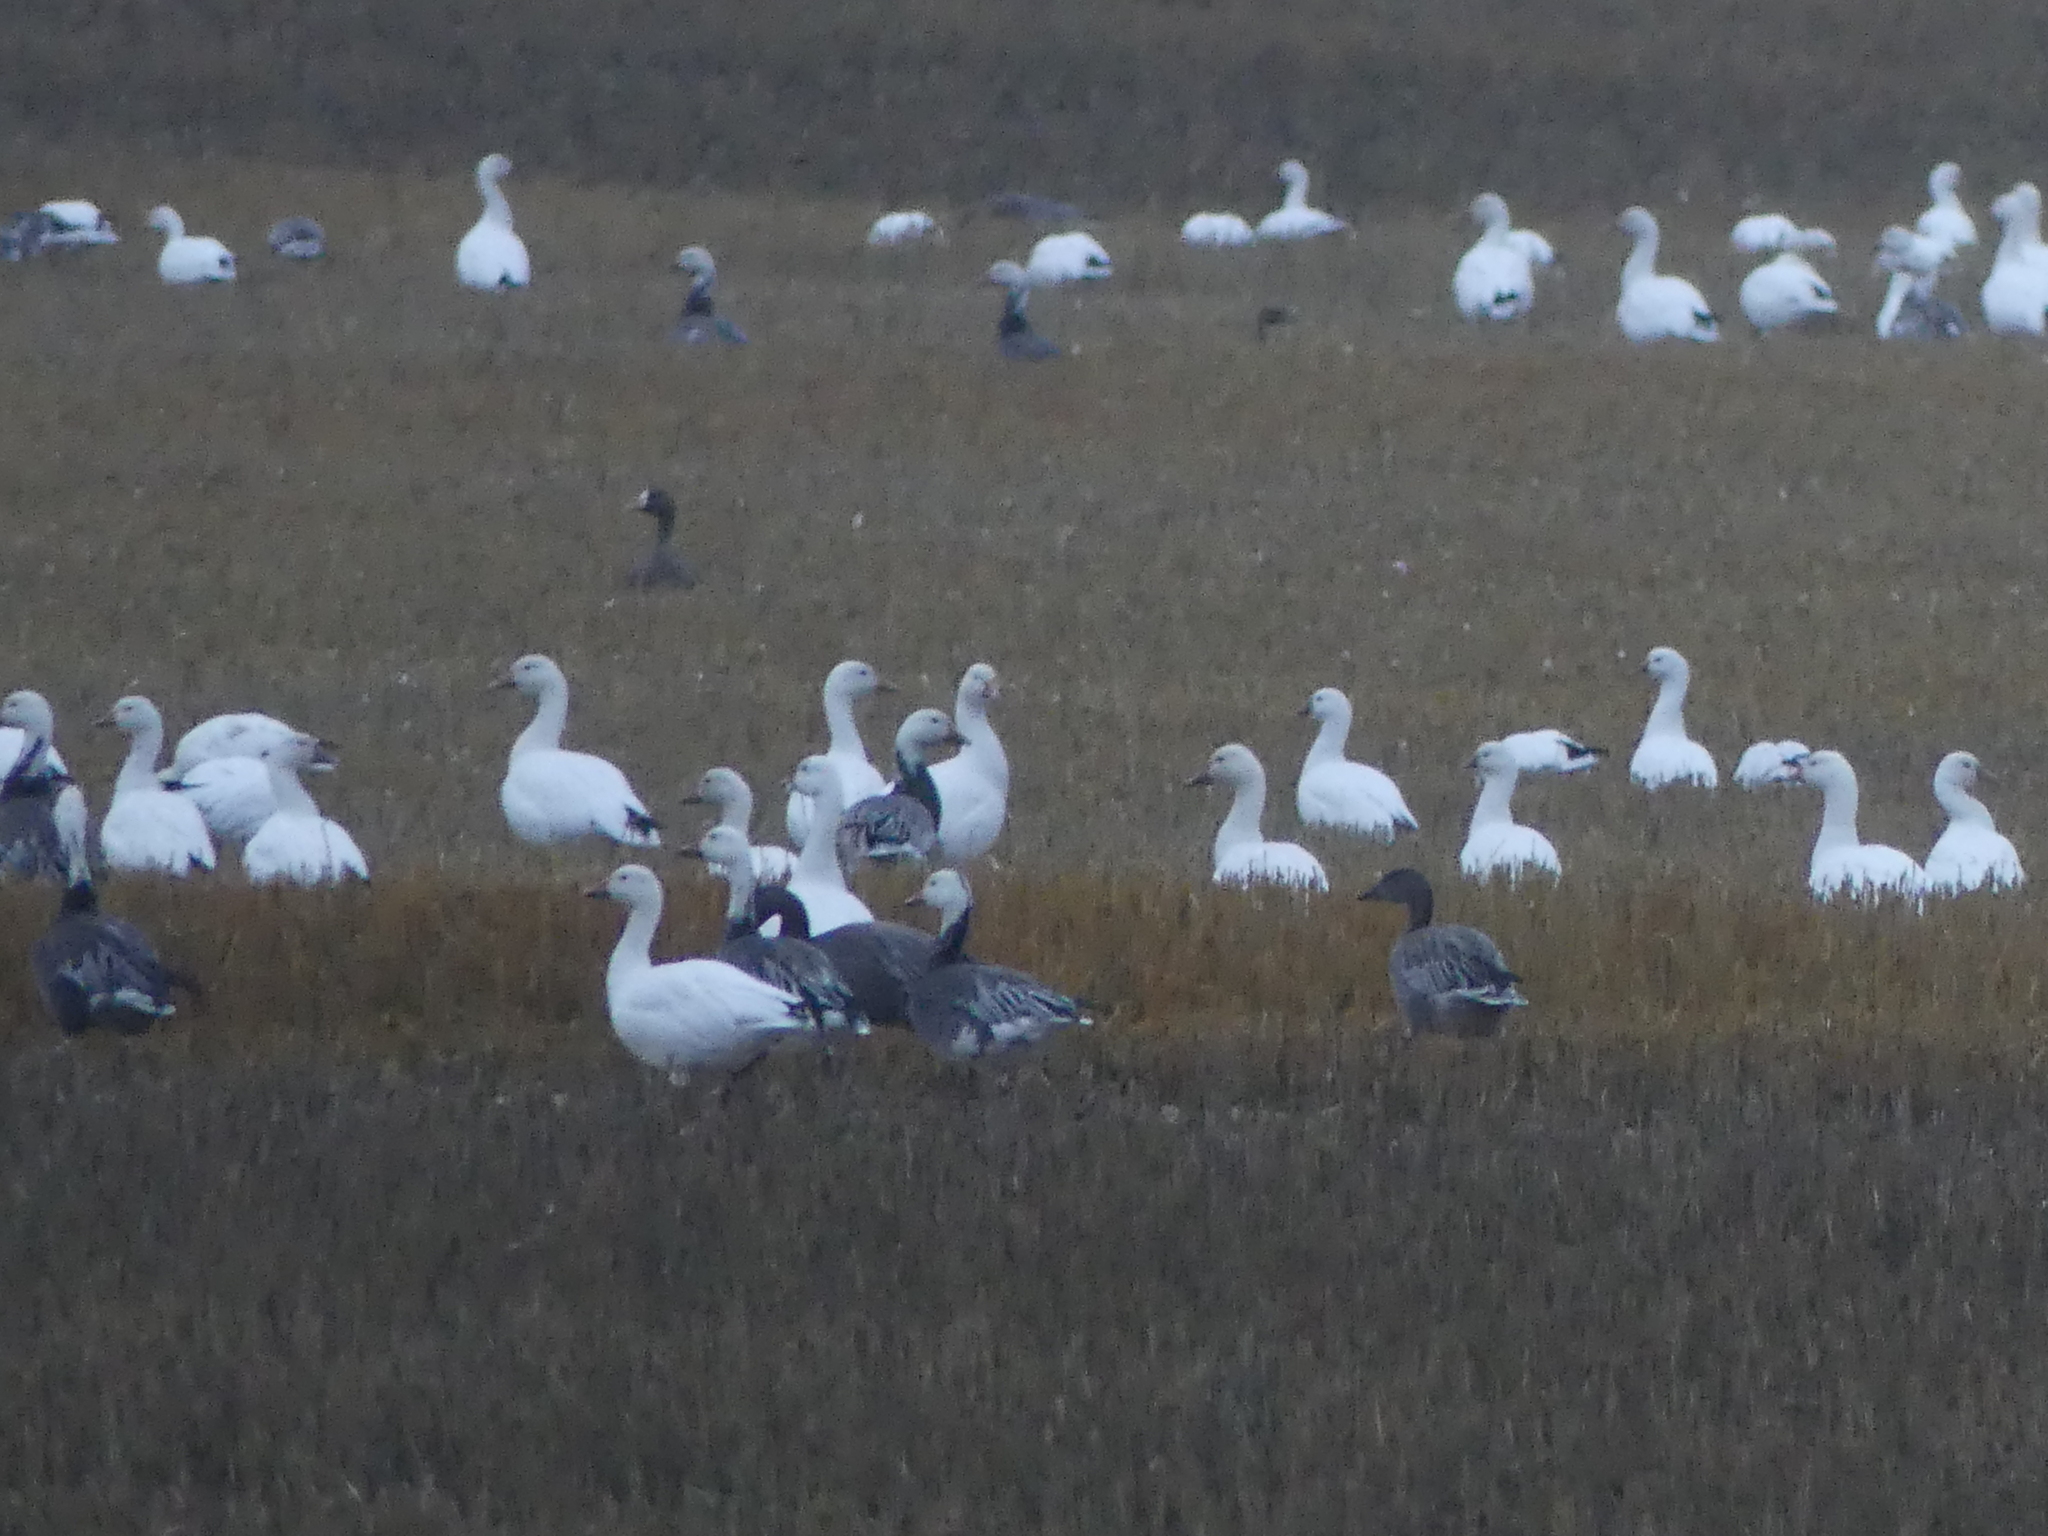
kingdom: Animalia
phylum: Chordata
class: Aves
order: Anseriformes
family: Anatidae
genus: Anser
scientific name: Anser caerulescens
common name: Snow goose
